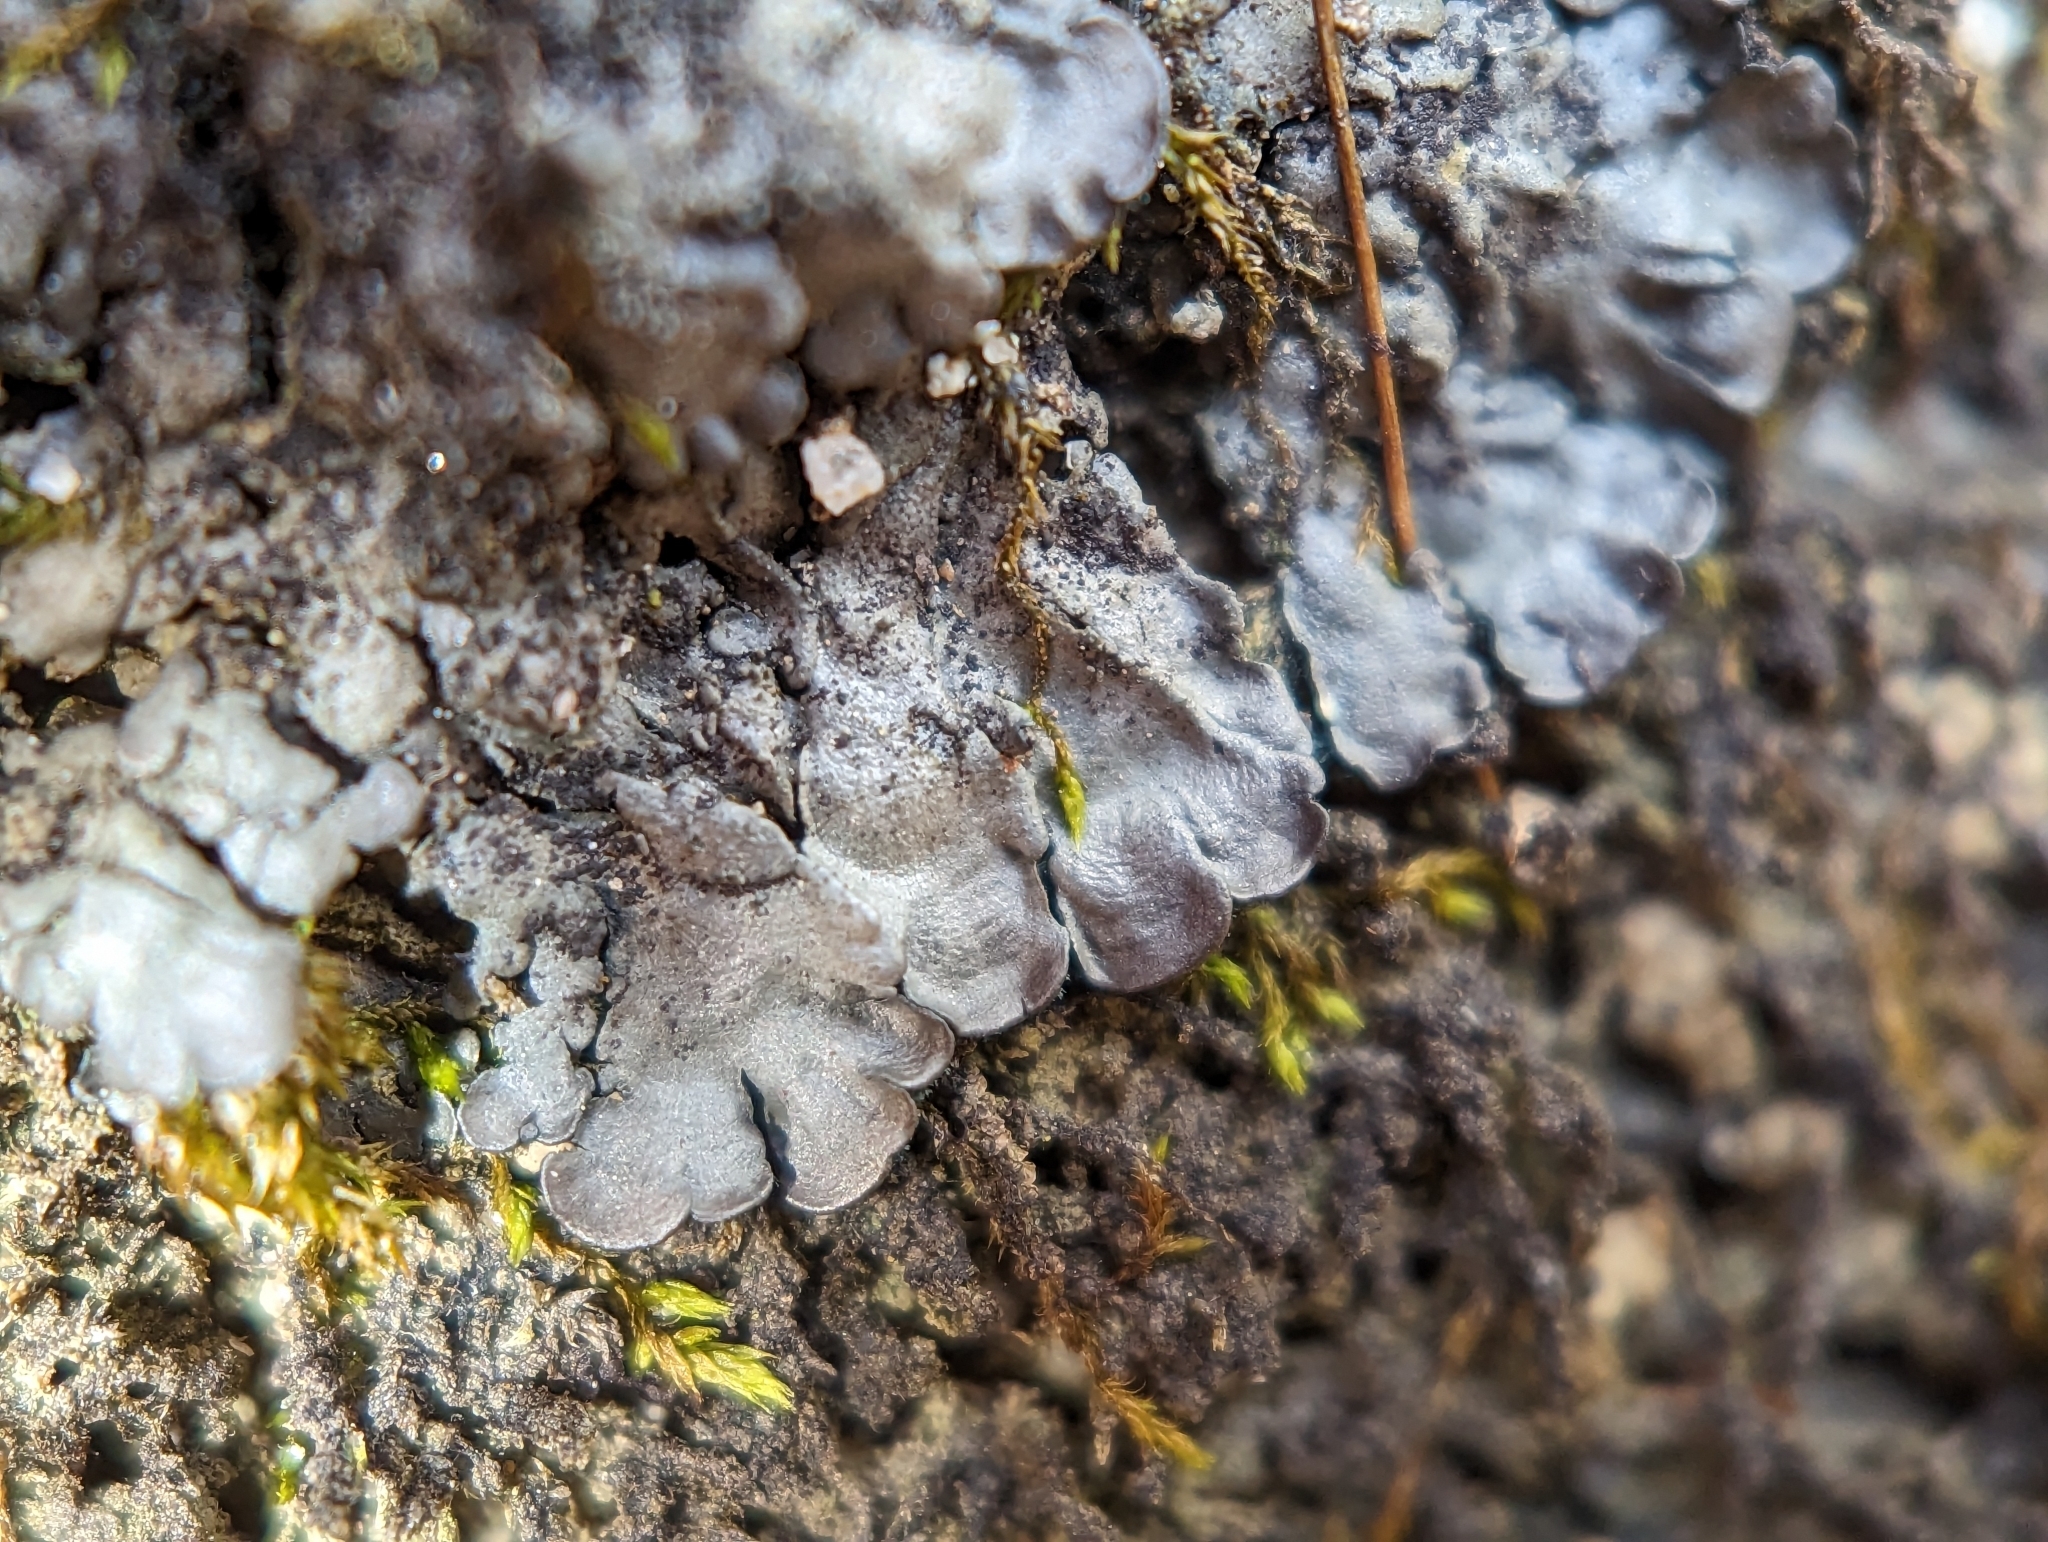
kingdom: Fungi
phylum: Ascomycota
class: Lecanoromycetes
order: Peltigerales
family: Coccocarpiaceae
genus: Coccocarpia
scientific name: Coccocarpia palmicola
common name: Salted shell lichen
